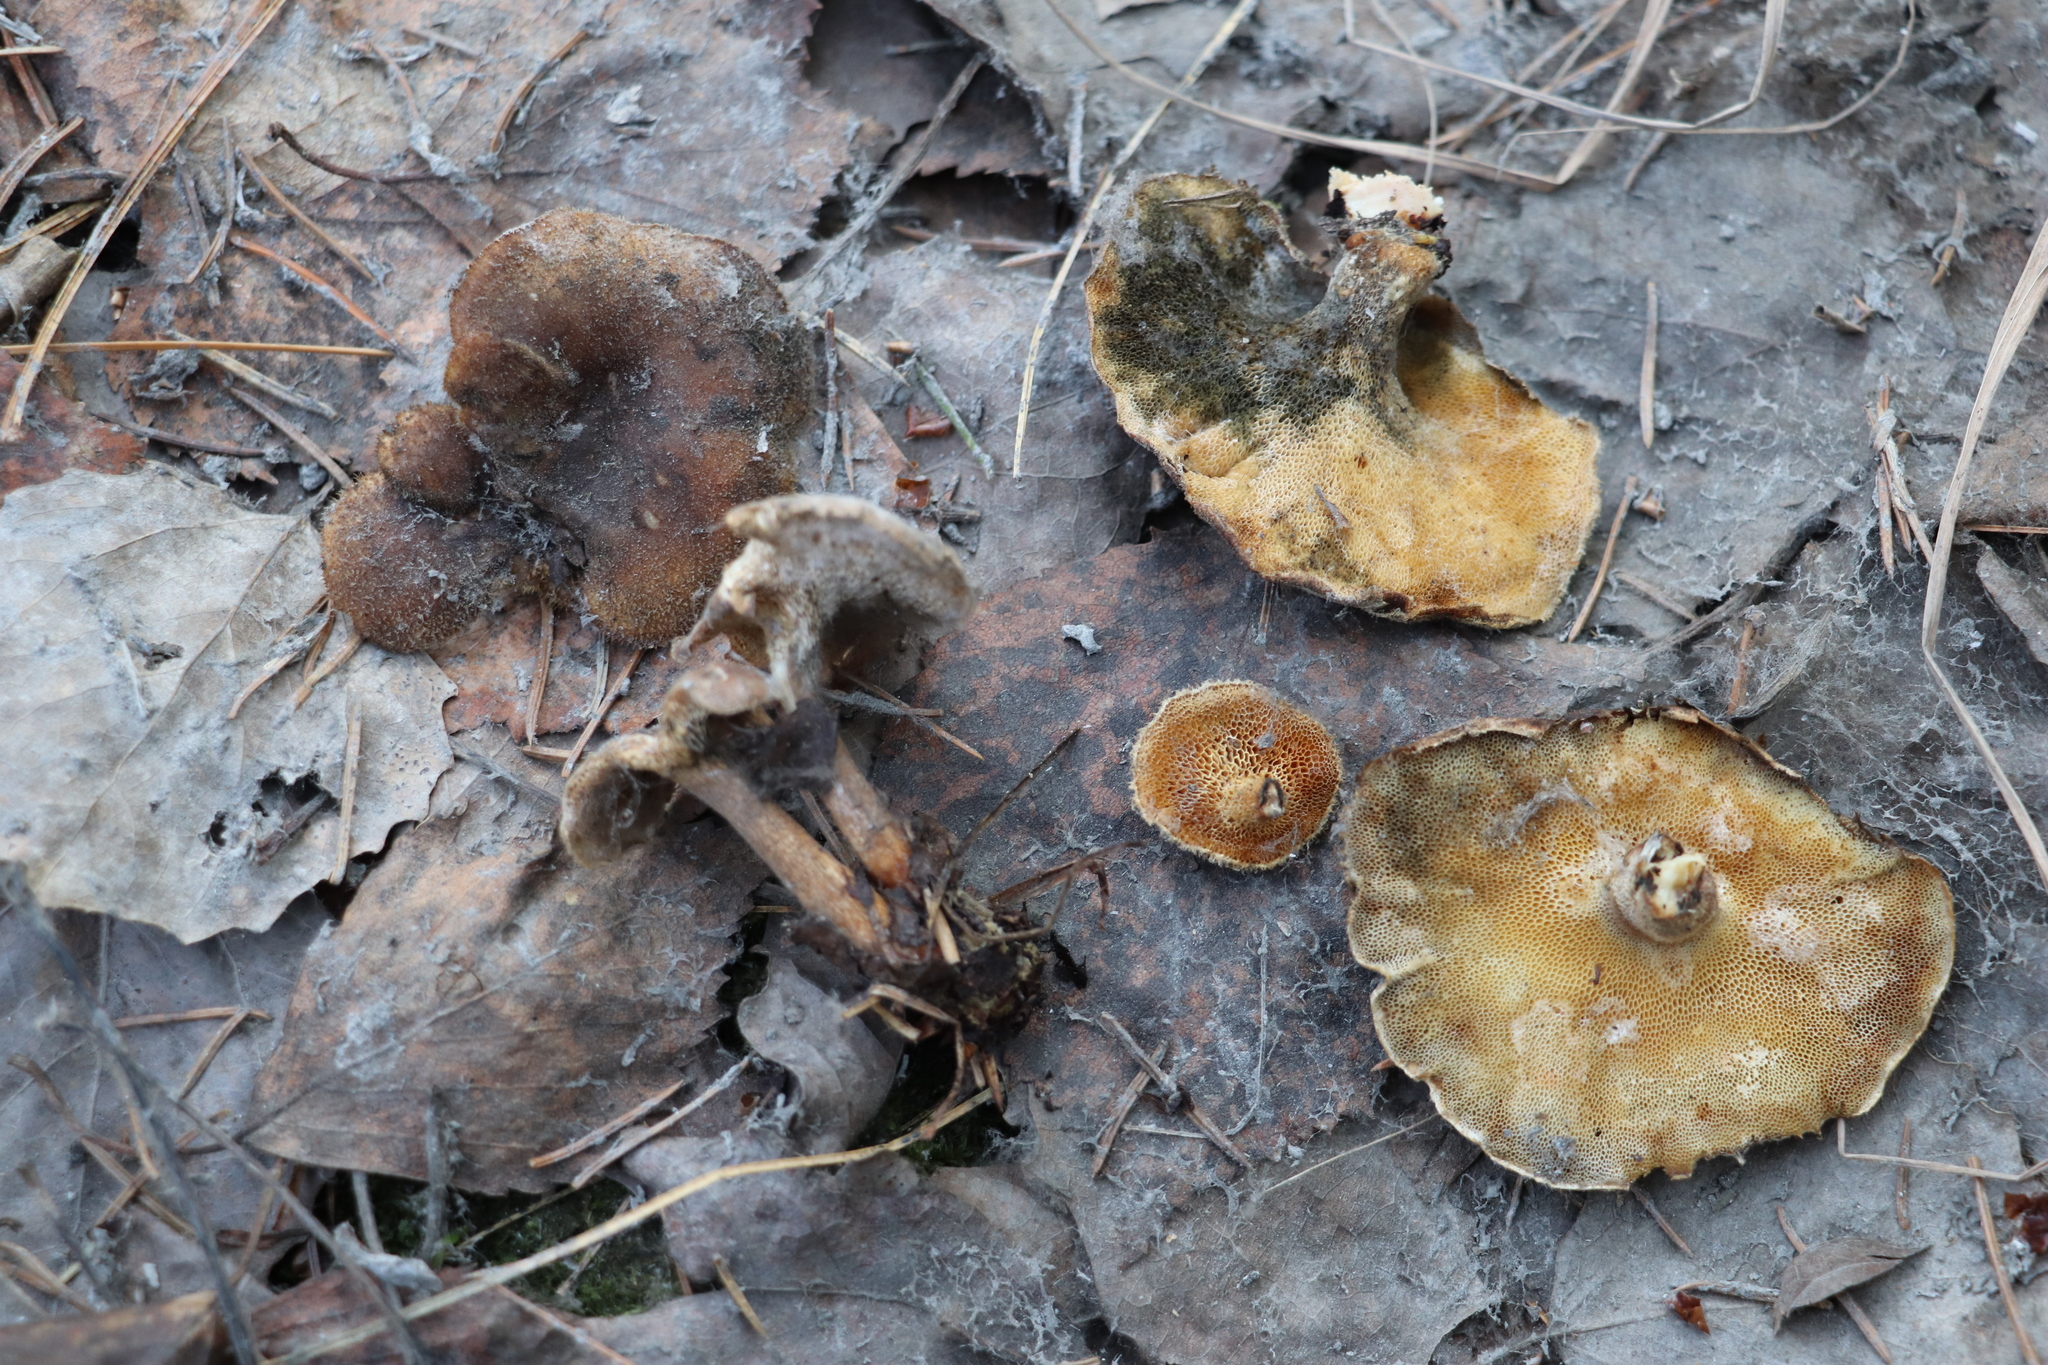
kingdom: Fungi
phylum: Basidiomycota
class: Agaricomycetes
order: Polyporales
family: Polyporaceae
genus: Lentinus
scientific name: Lentinus brumalis
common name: Winter polypore
